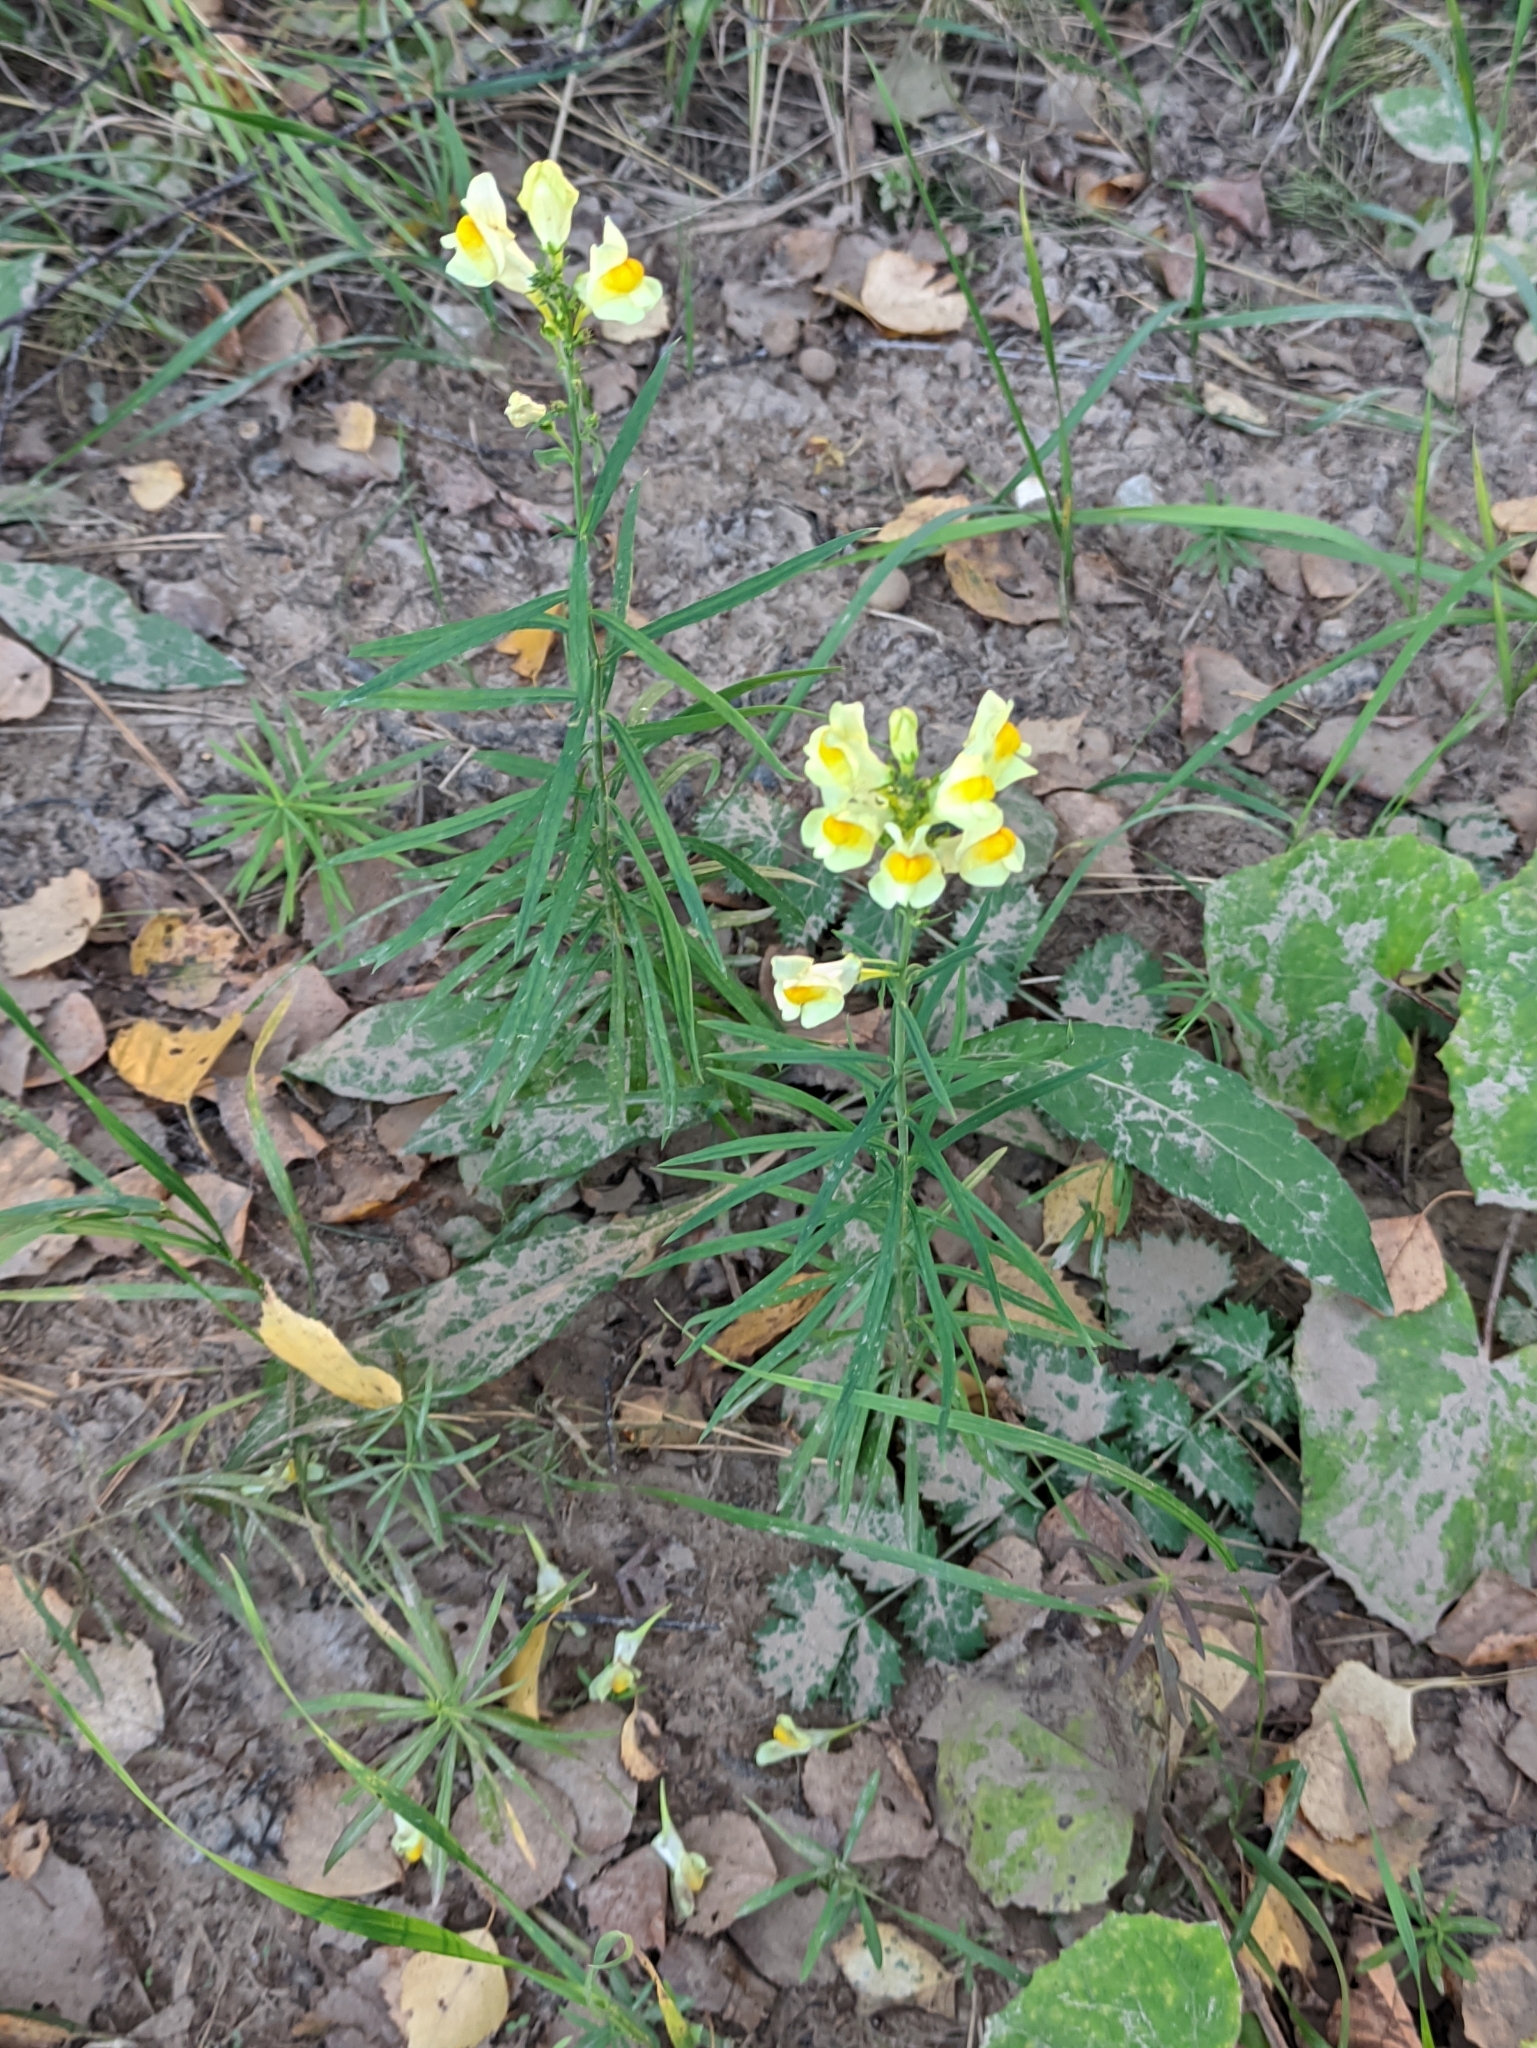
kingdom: Plantae
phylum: Tracheophyta
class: Magnoliopsida
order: Lamiales
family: Plantaginaceae
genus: Linaria
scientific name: Linaria vulgaris
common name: Butter and eggs
